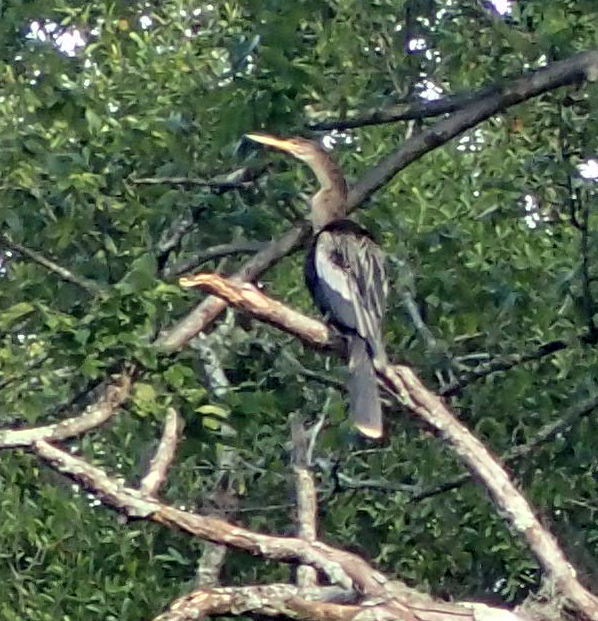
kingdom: Animalia
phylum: Chordata
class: Aves
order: Suliformes
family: Anhingidae
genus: Anhinga
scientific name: Anhinga anhinga
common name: Anhinga
